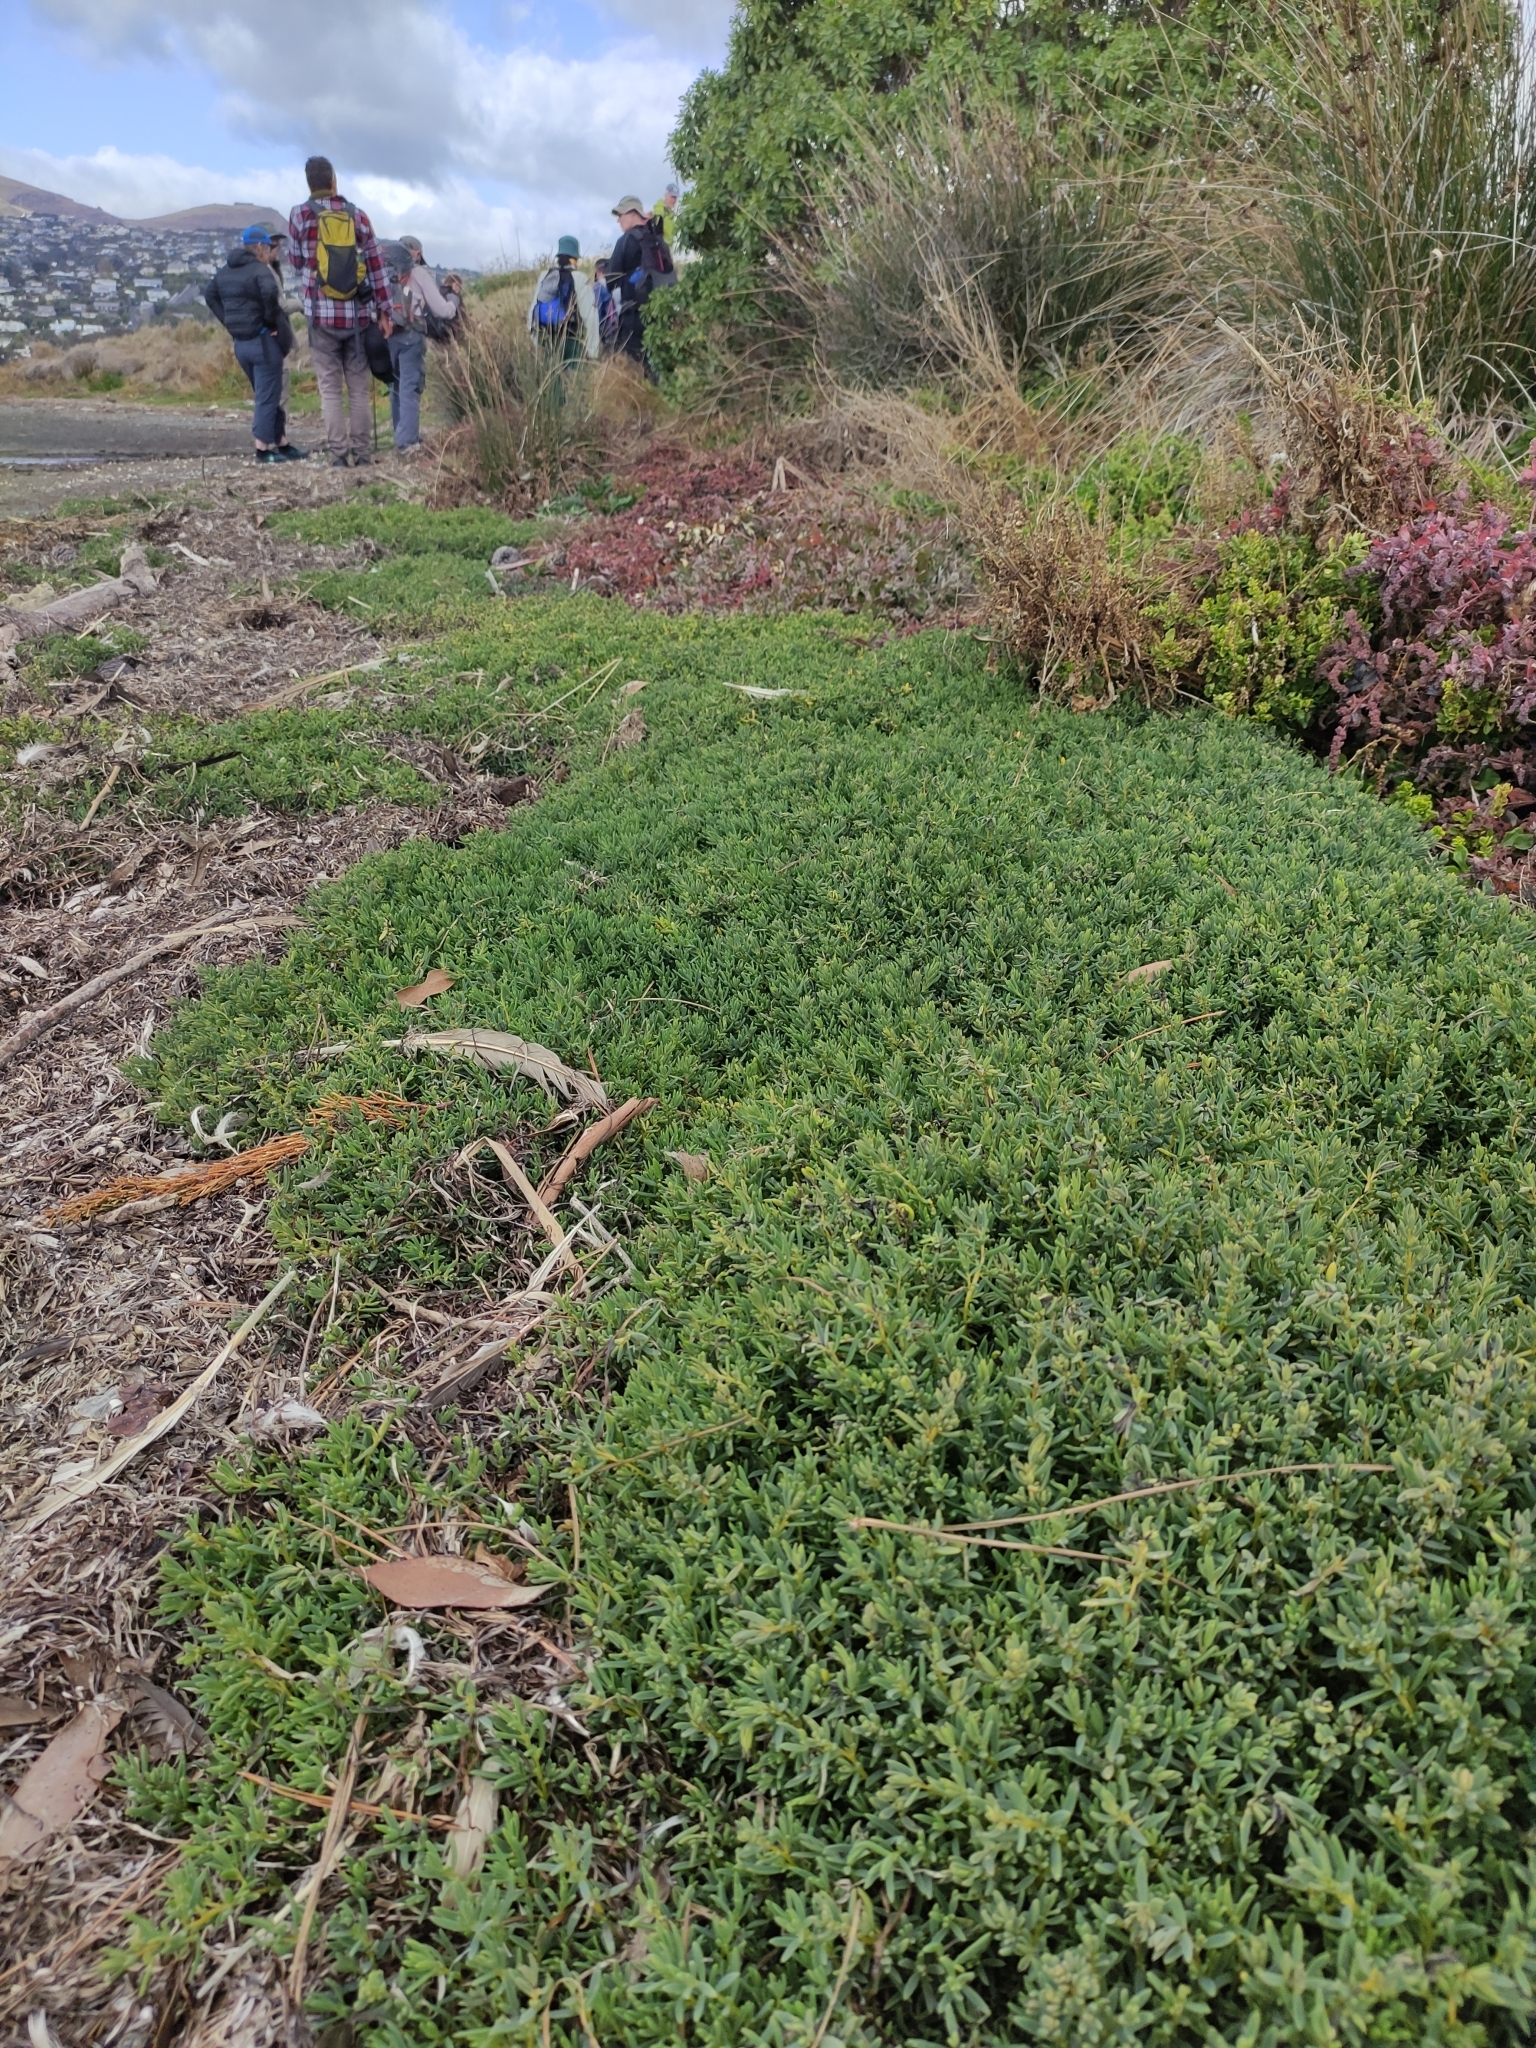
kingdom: Plantae
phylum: Tracheophyta
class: Magnoliopsida
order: Caryophyllales
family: Amaranthaceae
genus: Suaeda
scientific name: Suaeda novae-zelandiae
